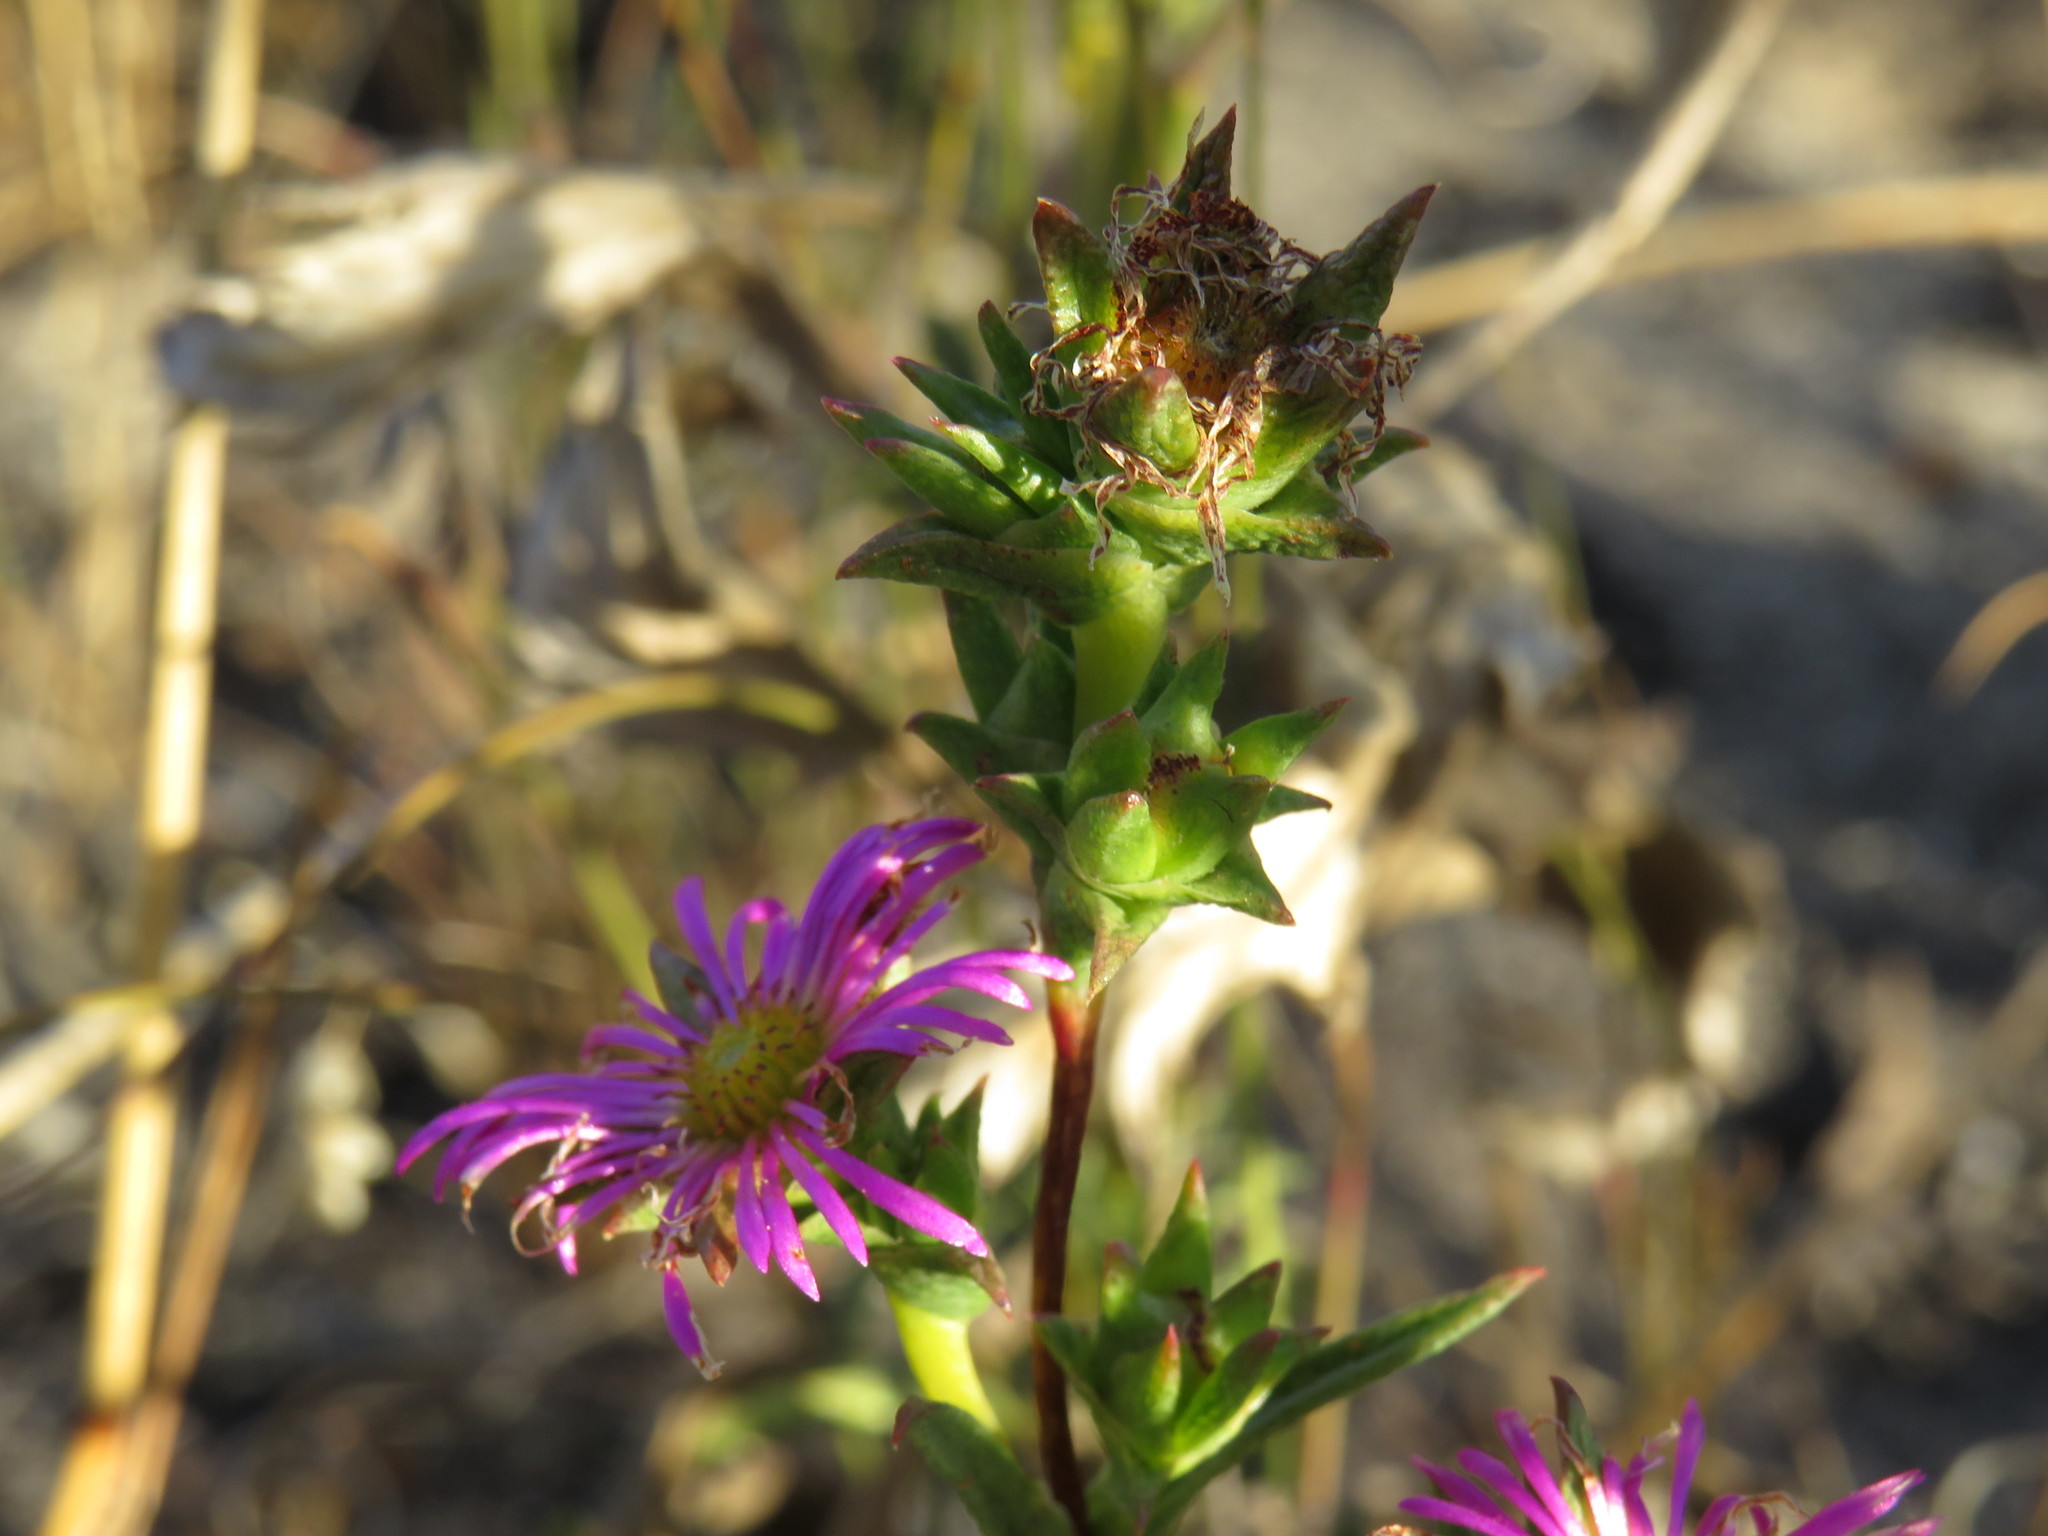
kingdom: Plantae
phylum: Tracheophyta
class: Magnoliopsida
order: Caryophyllales
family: Aizoaceae
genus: Erepsia
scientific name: Erepsia anceps
